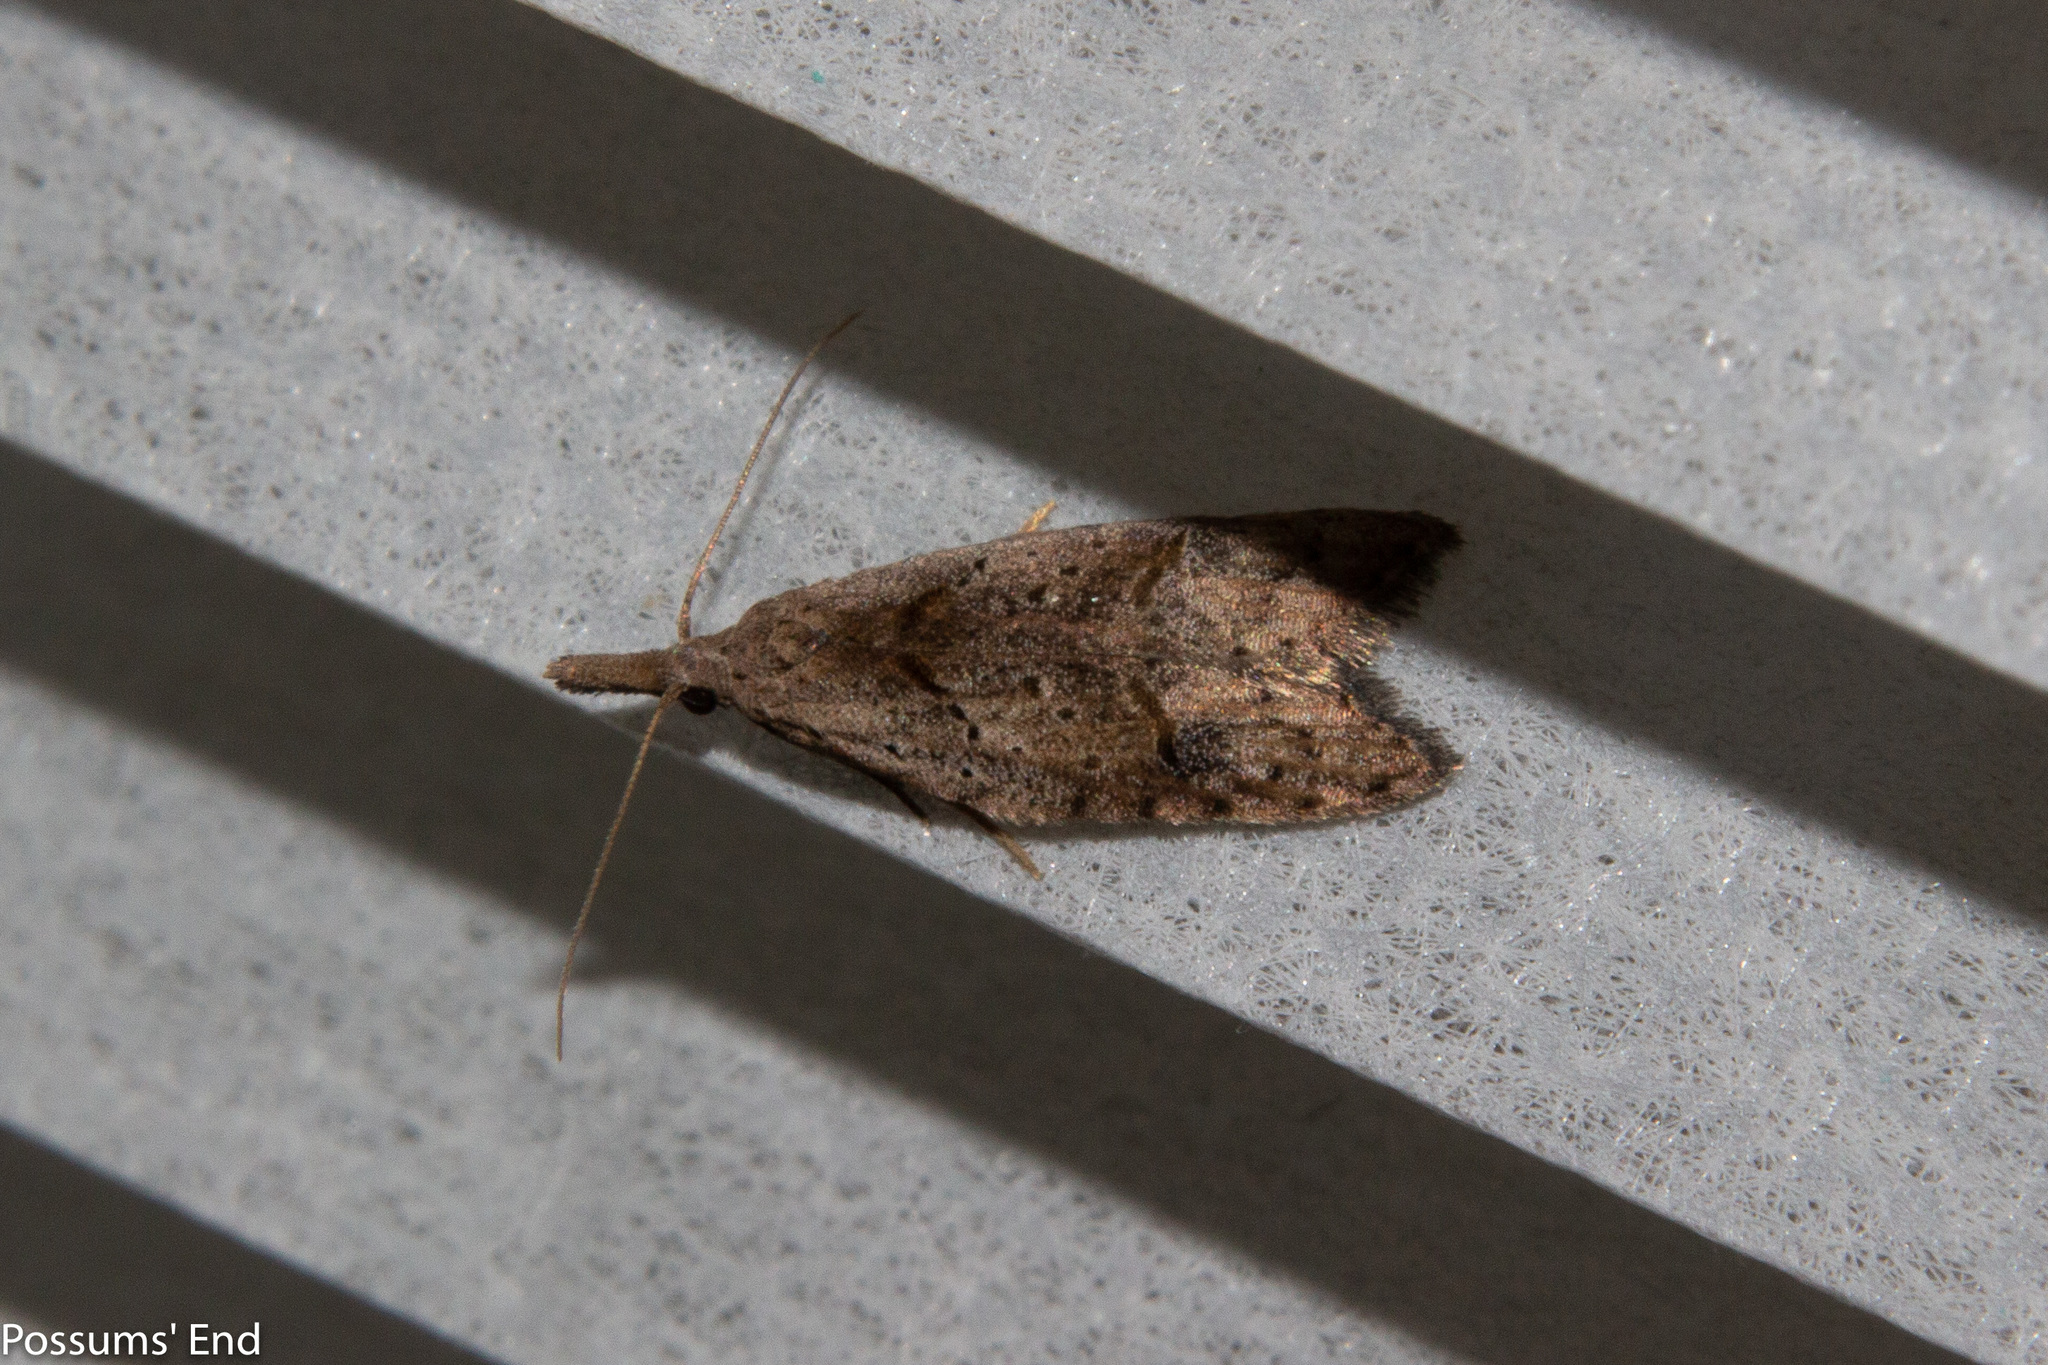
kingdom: Animalia
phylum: Arthropoda
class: Insecta
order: Lepidoptera
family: Carposinidae
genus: Carposina
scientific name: Carposina rubophaga
